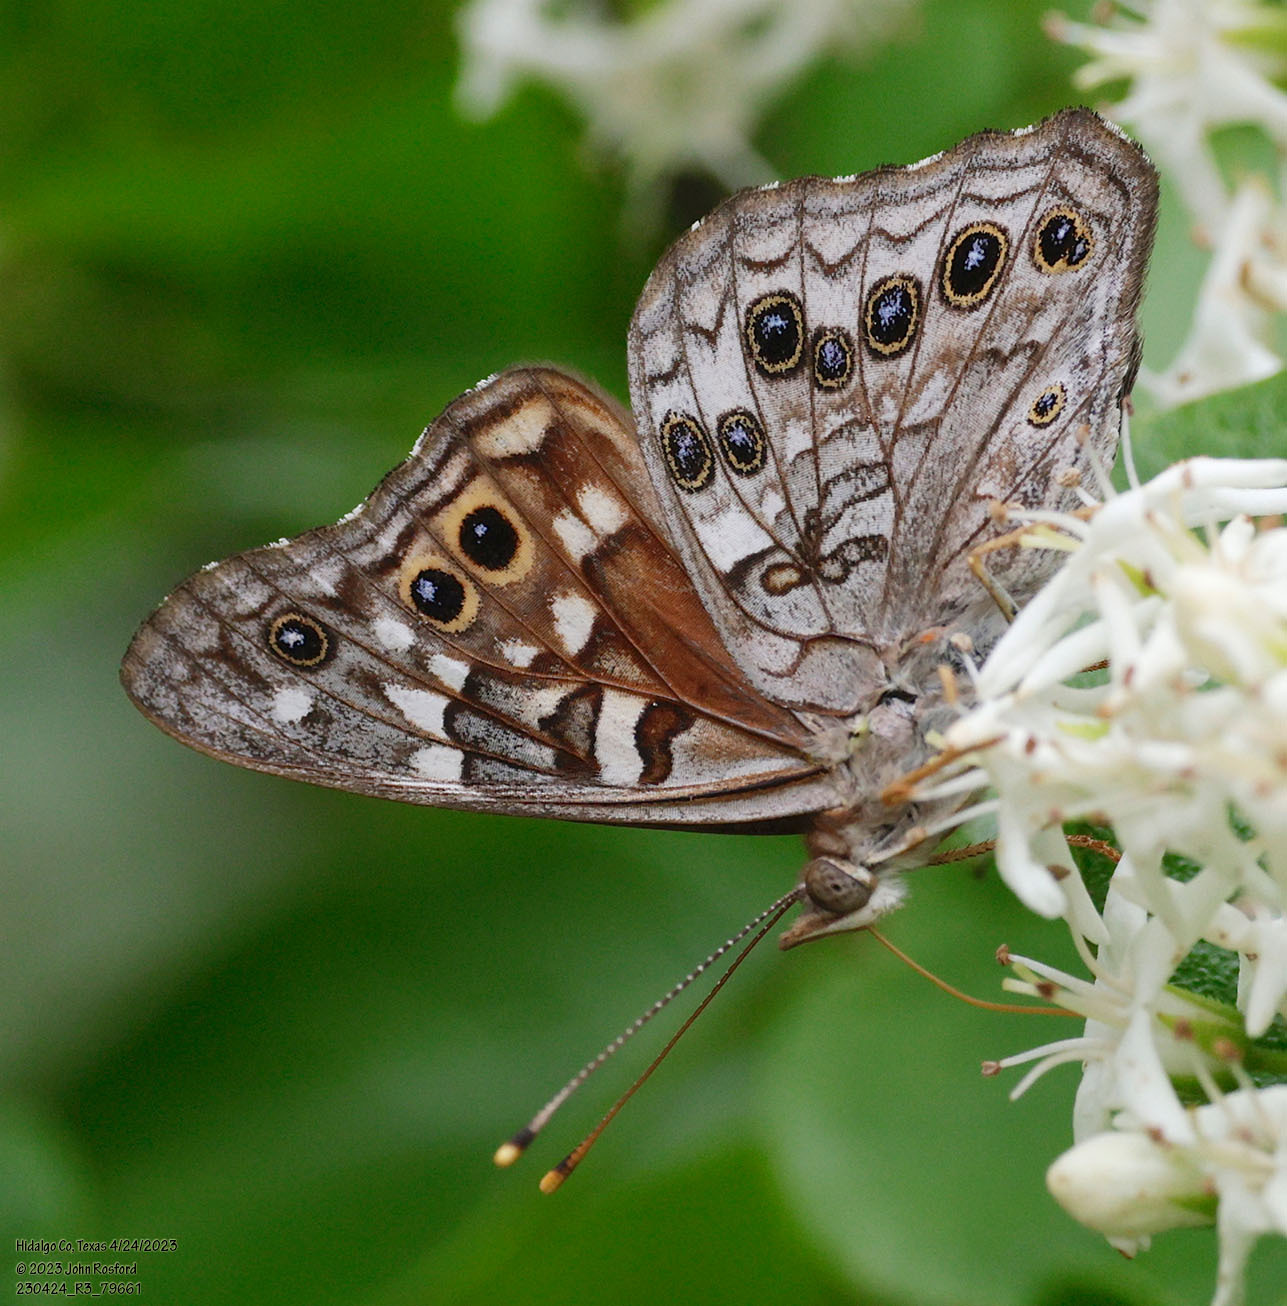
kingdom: Animalia
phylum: Arthropoda
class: Insecta
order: Lepidoptera
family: Nymphalidae
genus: Asterocampa
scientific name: Asterocampa leilia
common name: Empress leilia
